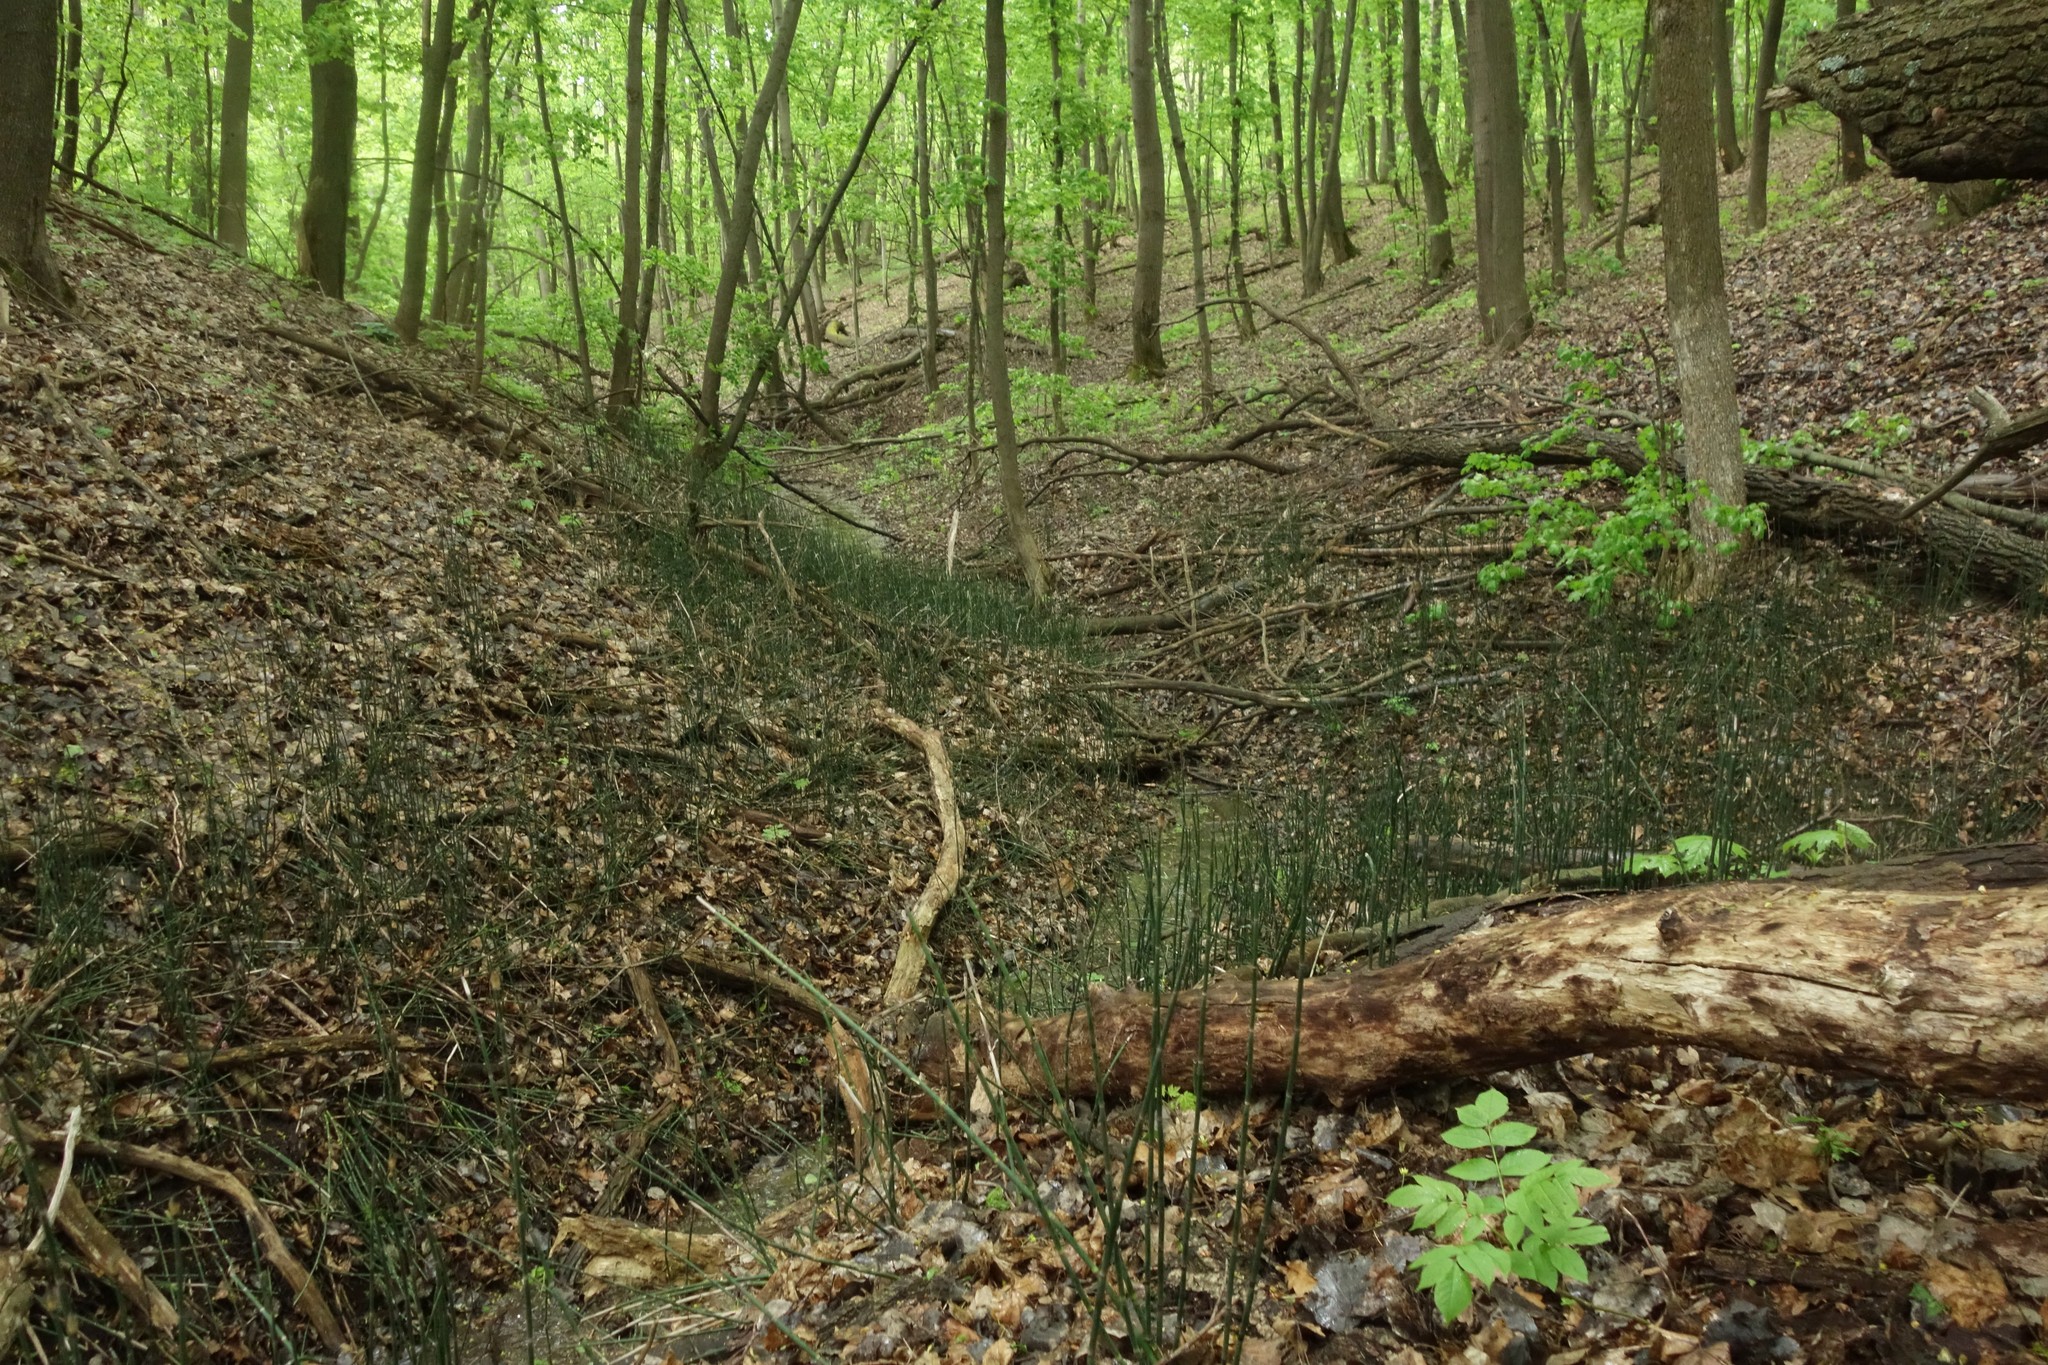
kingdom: Plantae
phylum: Tracheophyta
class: Polypodiopsida
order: Equisetales
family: Equisetaceae
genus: Equisetum
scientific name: Equisetum hyemale
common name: Rough horsetail
